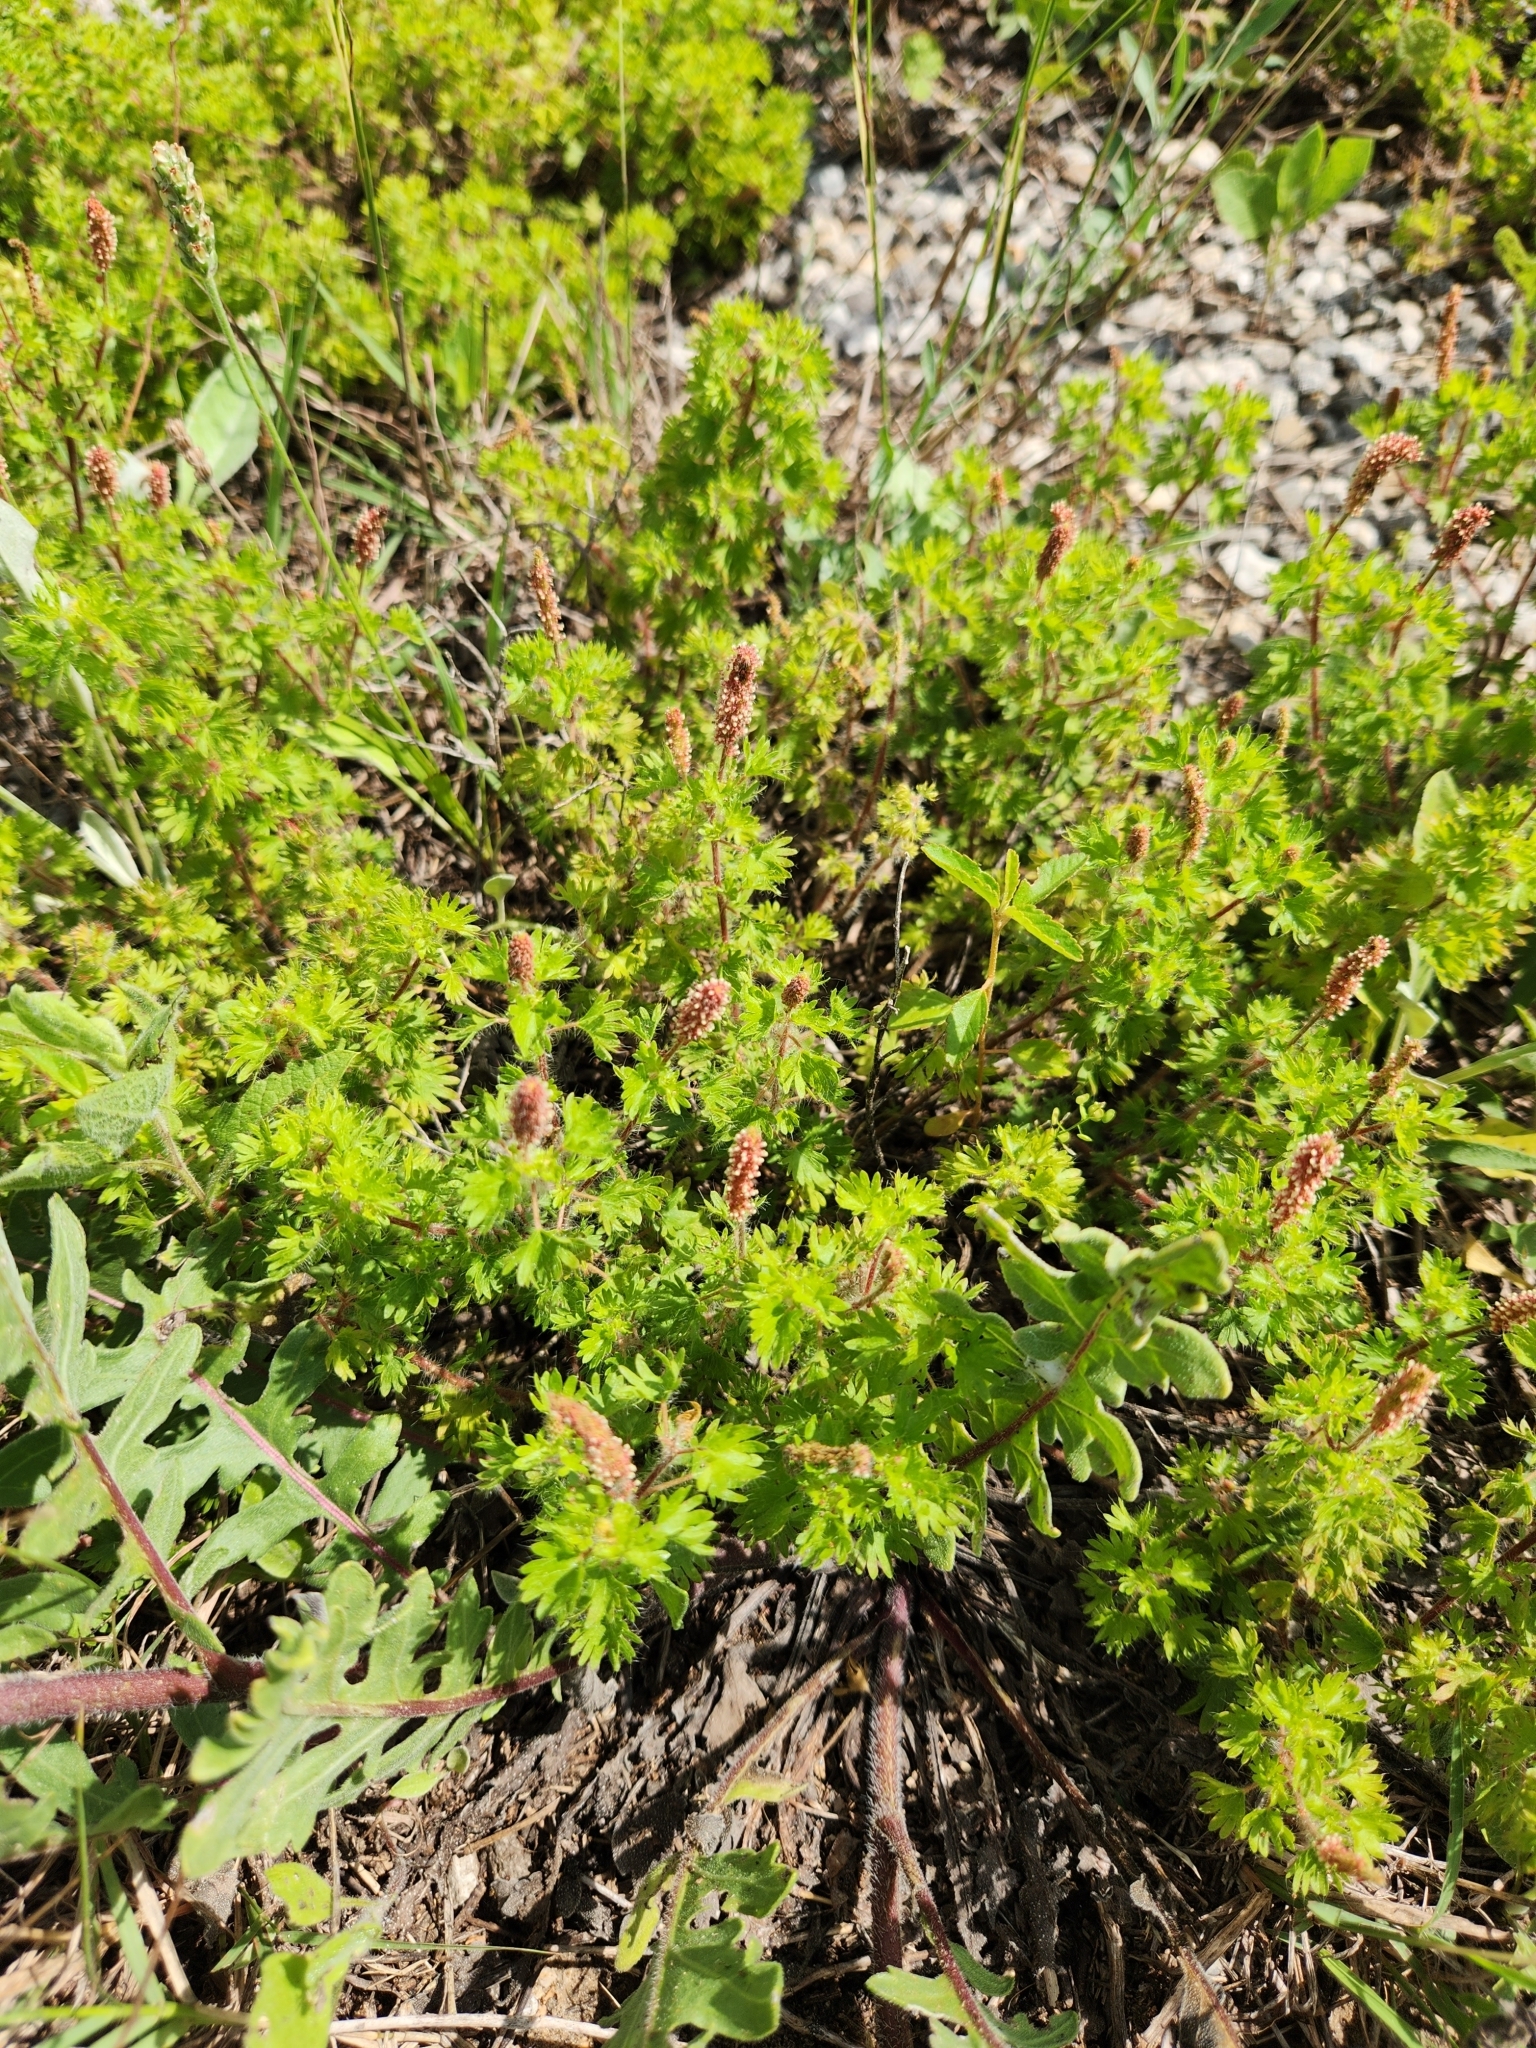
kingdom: Plantae
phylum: Tracheophyta
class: Magnoliopsida
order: Malpighiales
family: Euphorbiaceae
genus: Acalypha
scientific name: Acalypha radians
